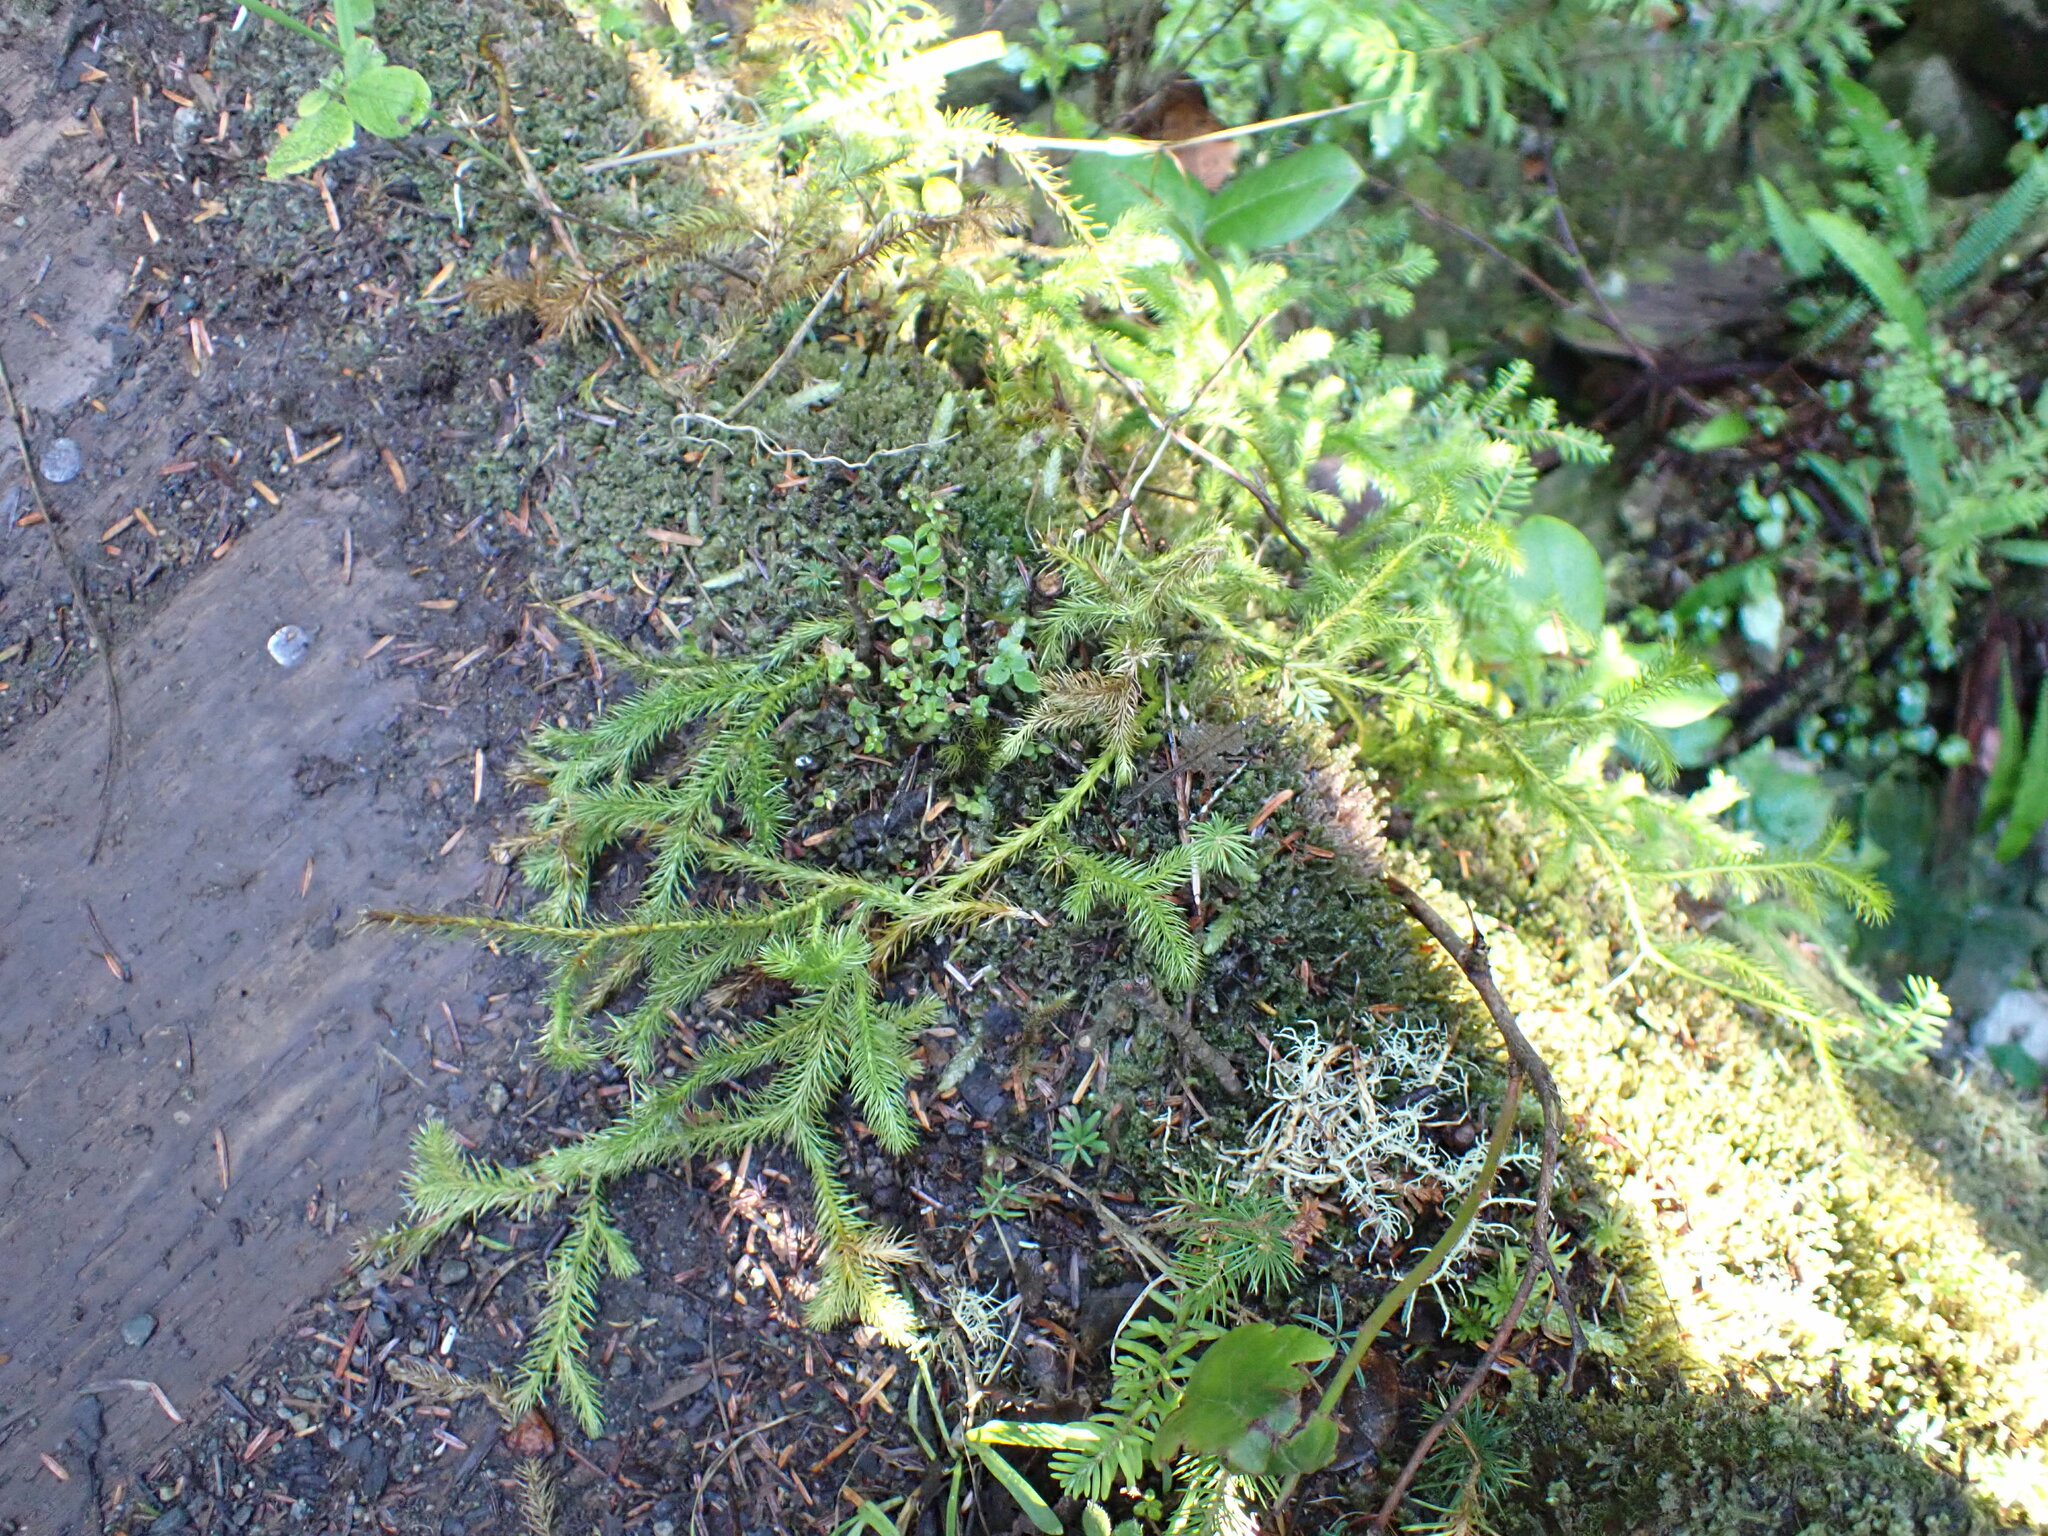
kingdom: Plantae
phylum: Tracheophyta
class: Lycopodiopsida
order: Lycopodiales
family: Lycopodiaceae
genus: Lycopodium
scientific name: Lycopodium clavatum
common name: Stag's-horn clubmoss
